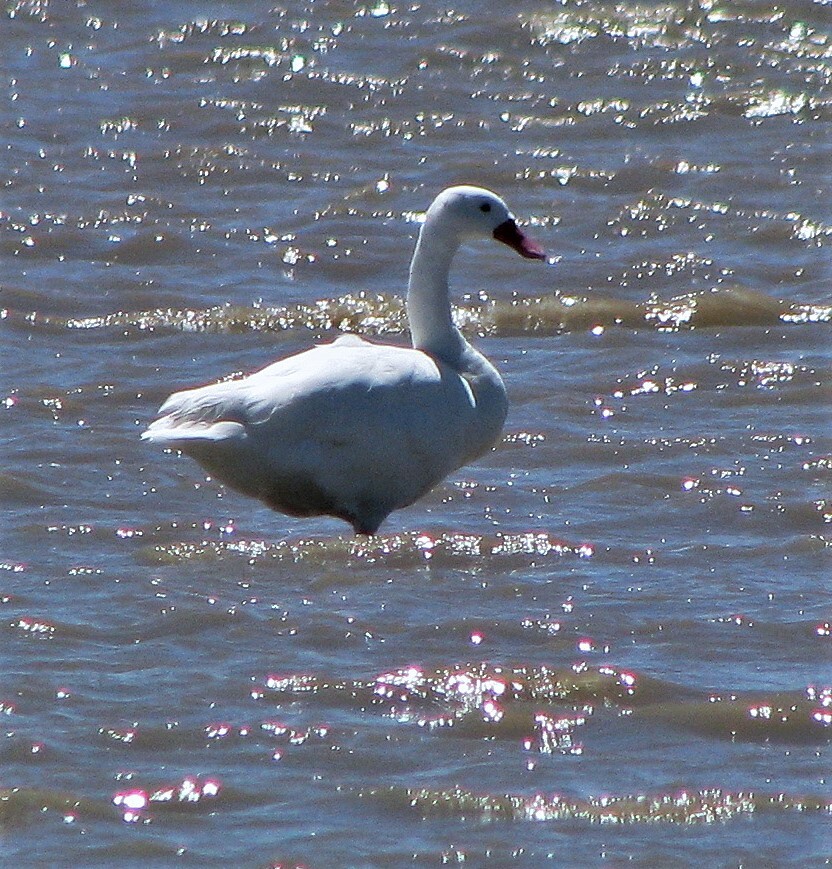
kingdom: Animalia
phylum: Chordata
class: Aves
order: Anseriformes
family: Anatidae
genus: Coscoroba
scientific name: Coscoroba coscoroba
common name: Coscoroba swan
